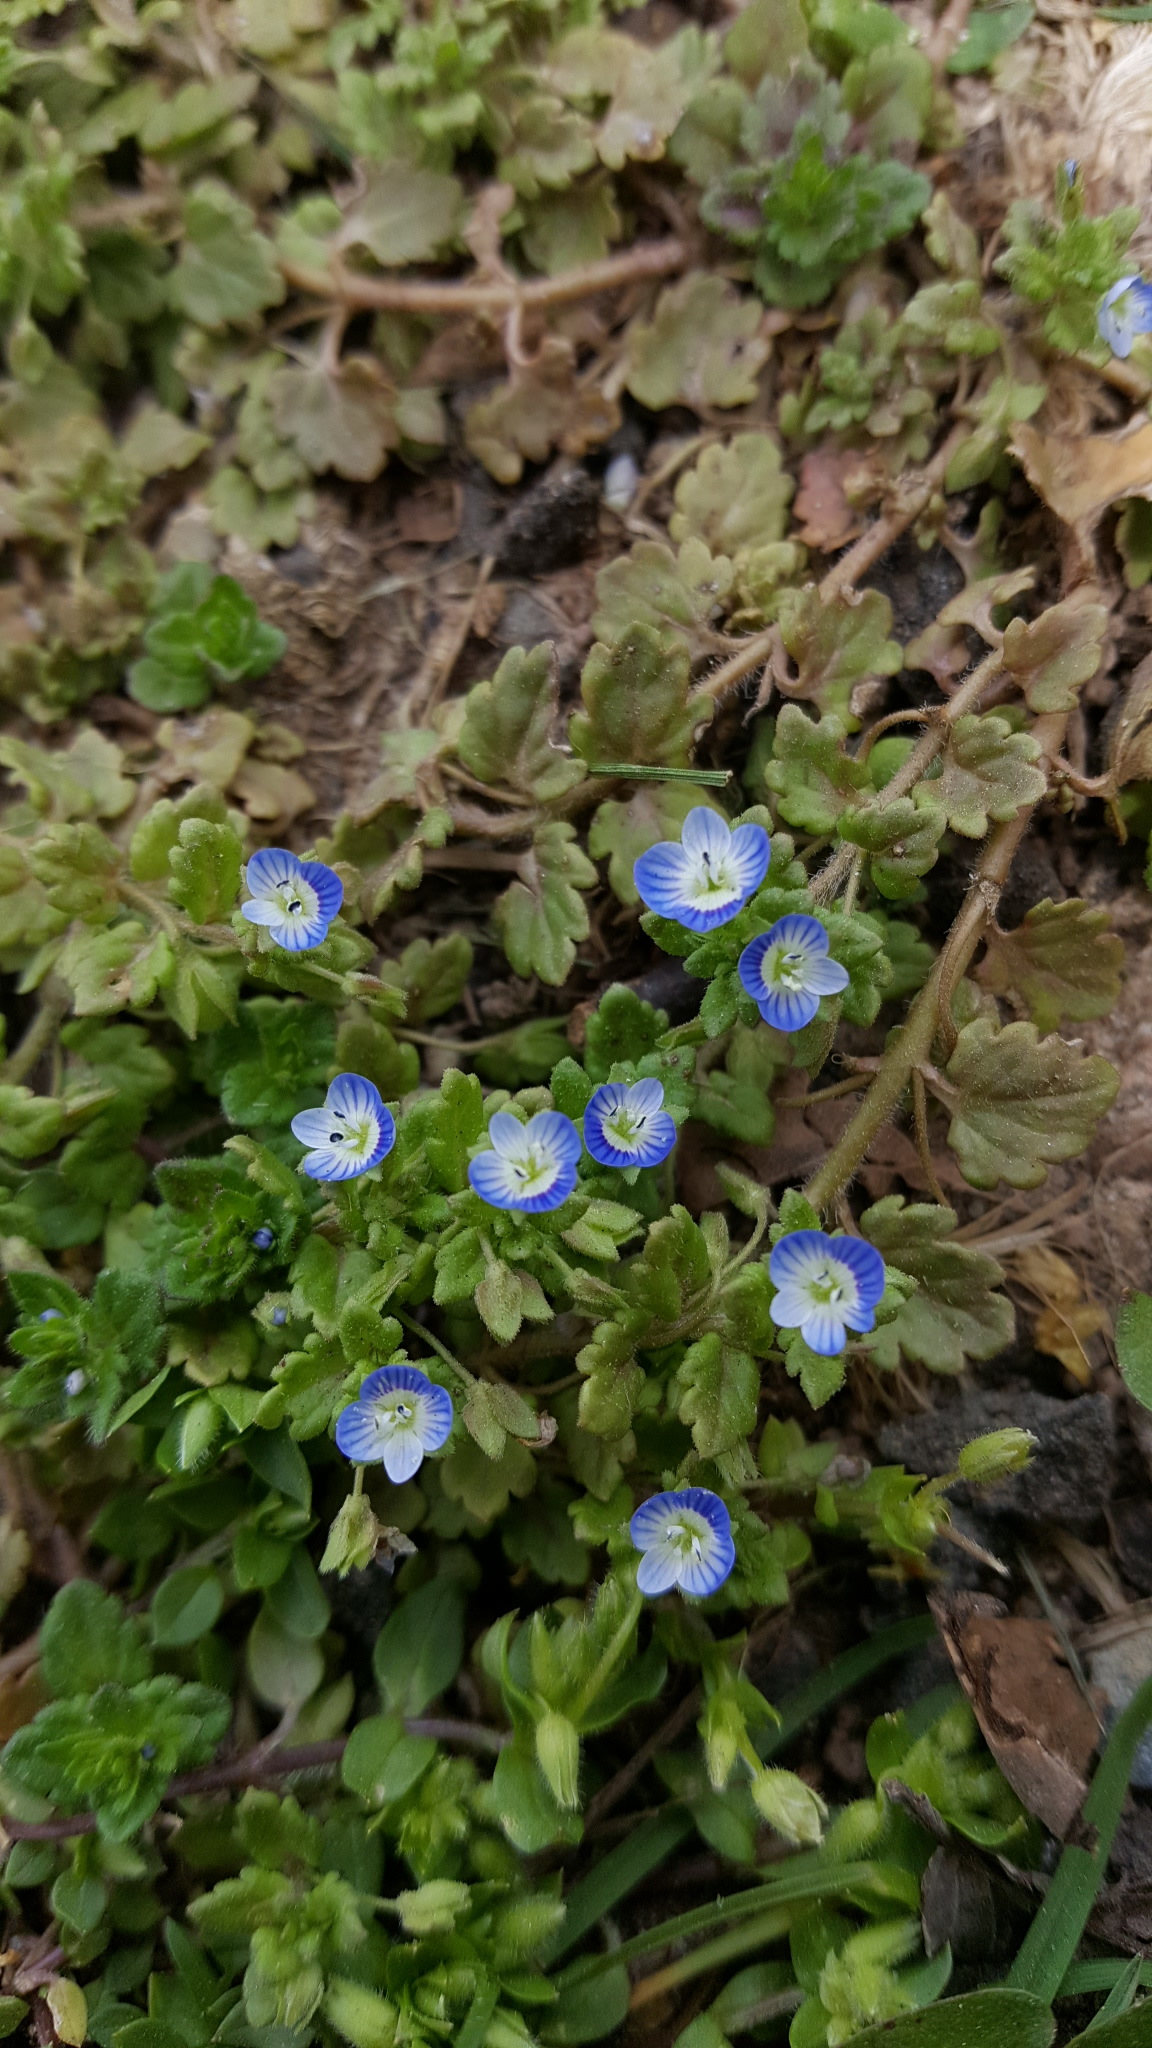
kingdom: Plantae
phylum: Tracheophyta
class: Magnoliopsida
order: Lamiales
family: Plantaginaceae
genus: Veronica
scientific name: Veronica persica
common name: Common field-speedwell
